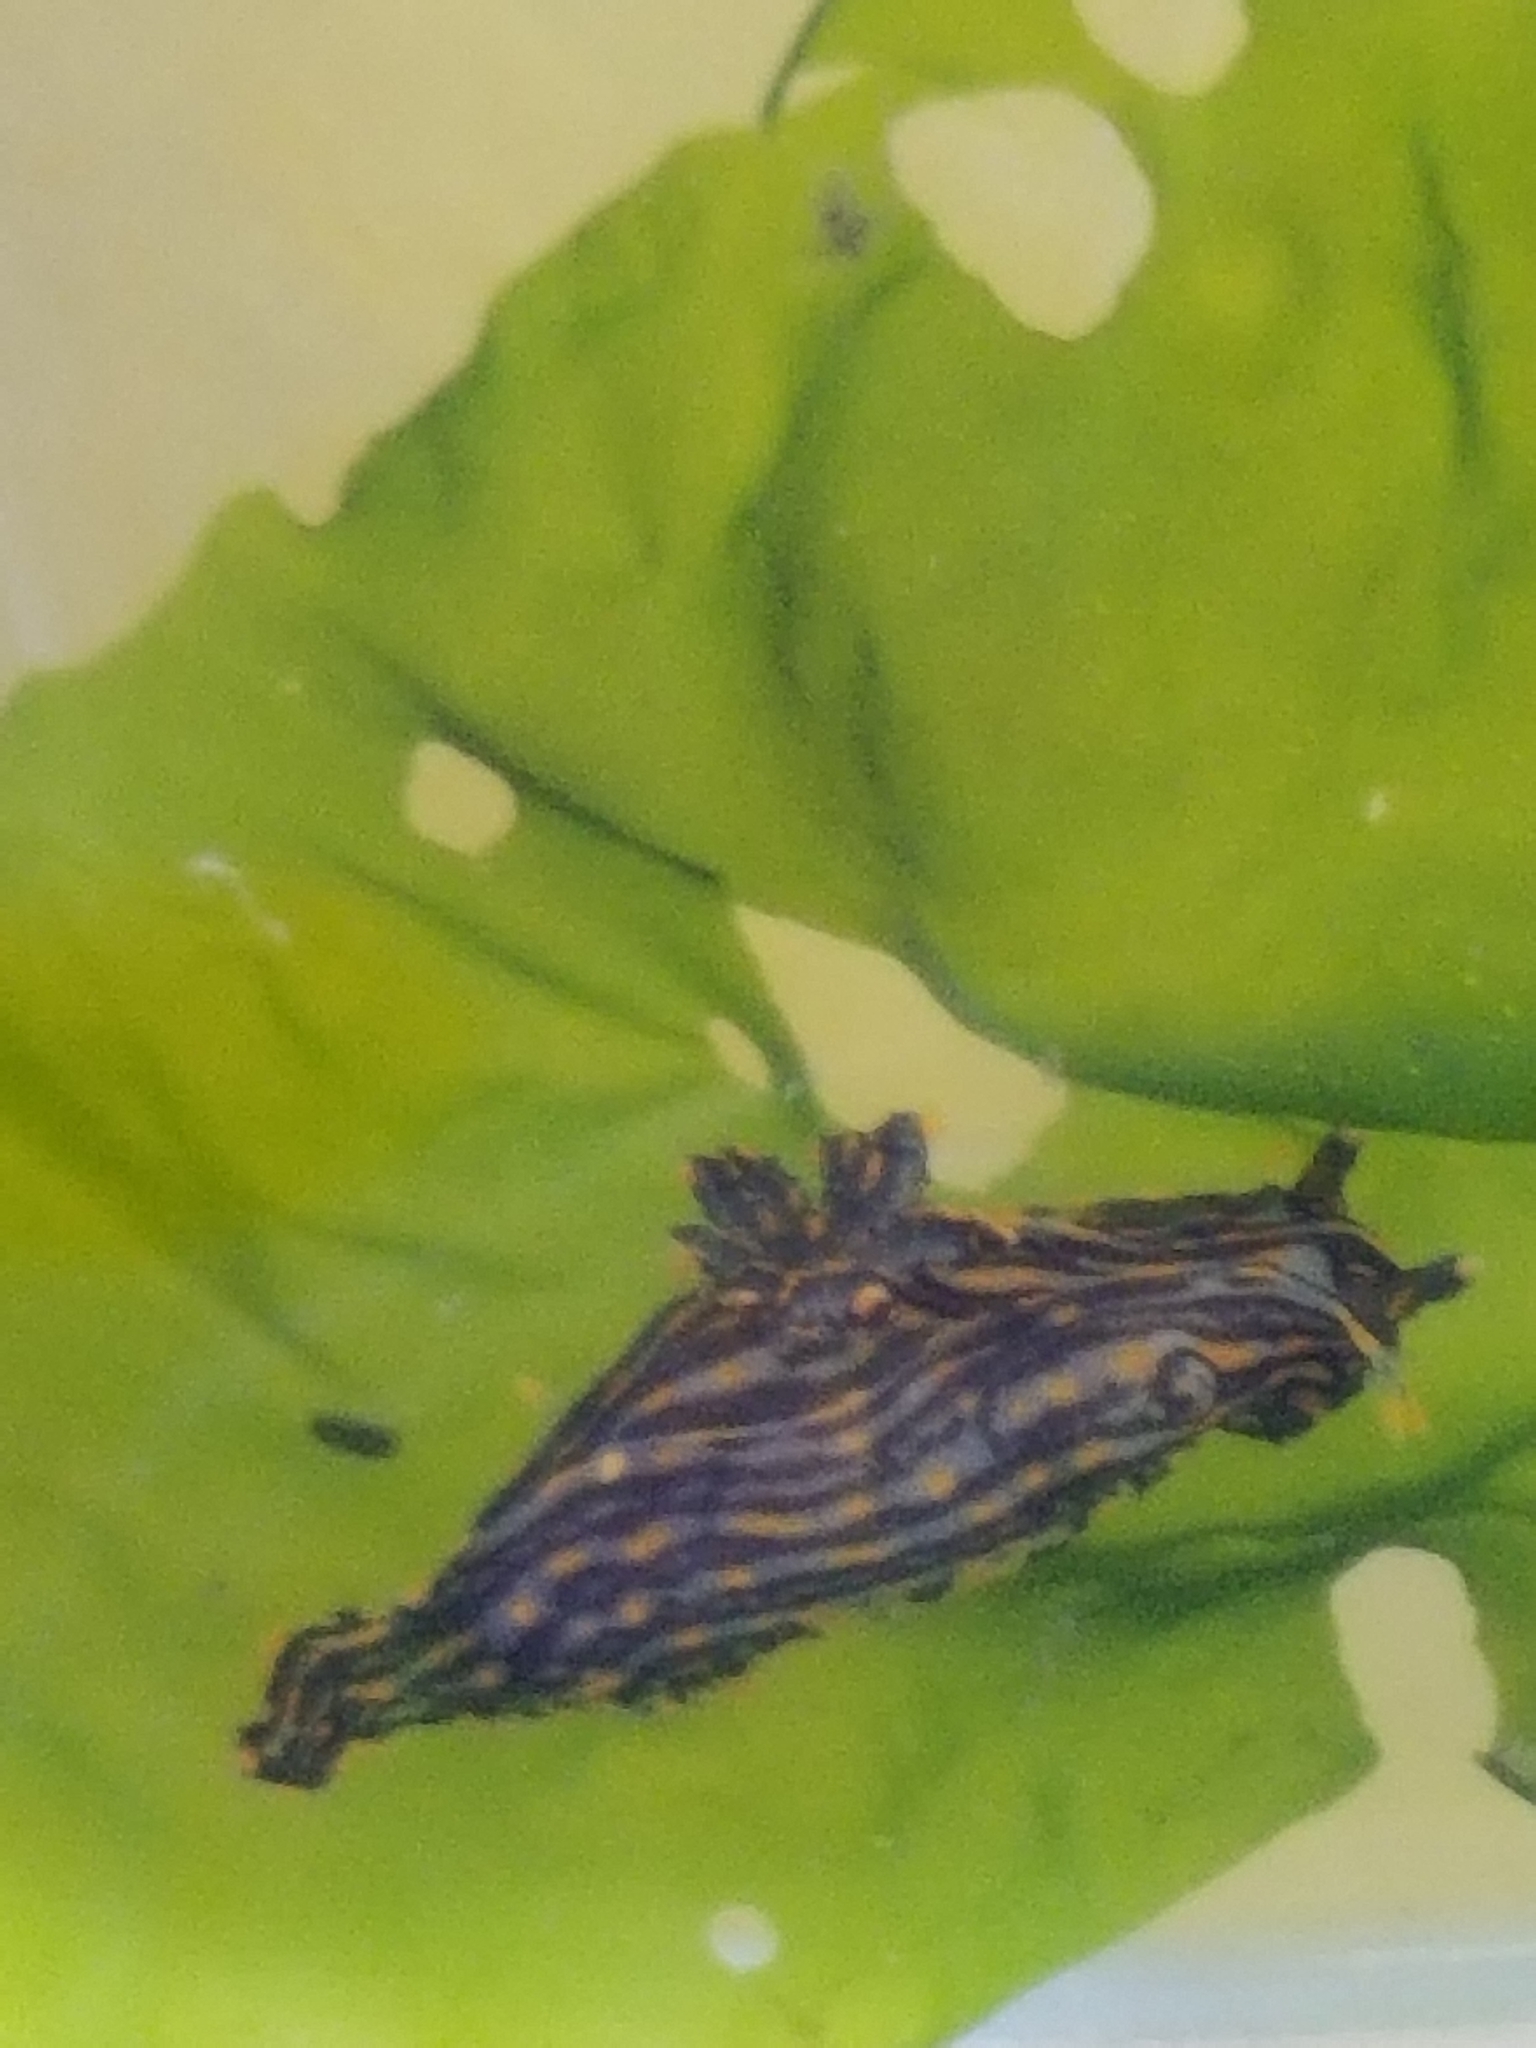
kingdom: Animalia
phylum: Mollusca
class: Gastropoda
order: Nudibranchia
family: Polyceridae
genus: Polycera
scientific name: Polycera atra
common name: Orange-spike polycera
